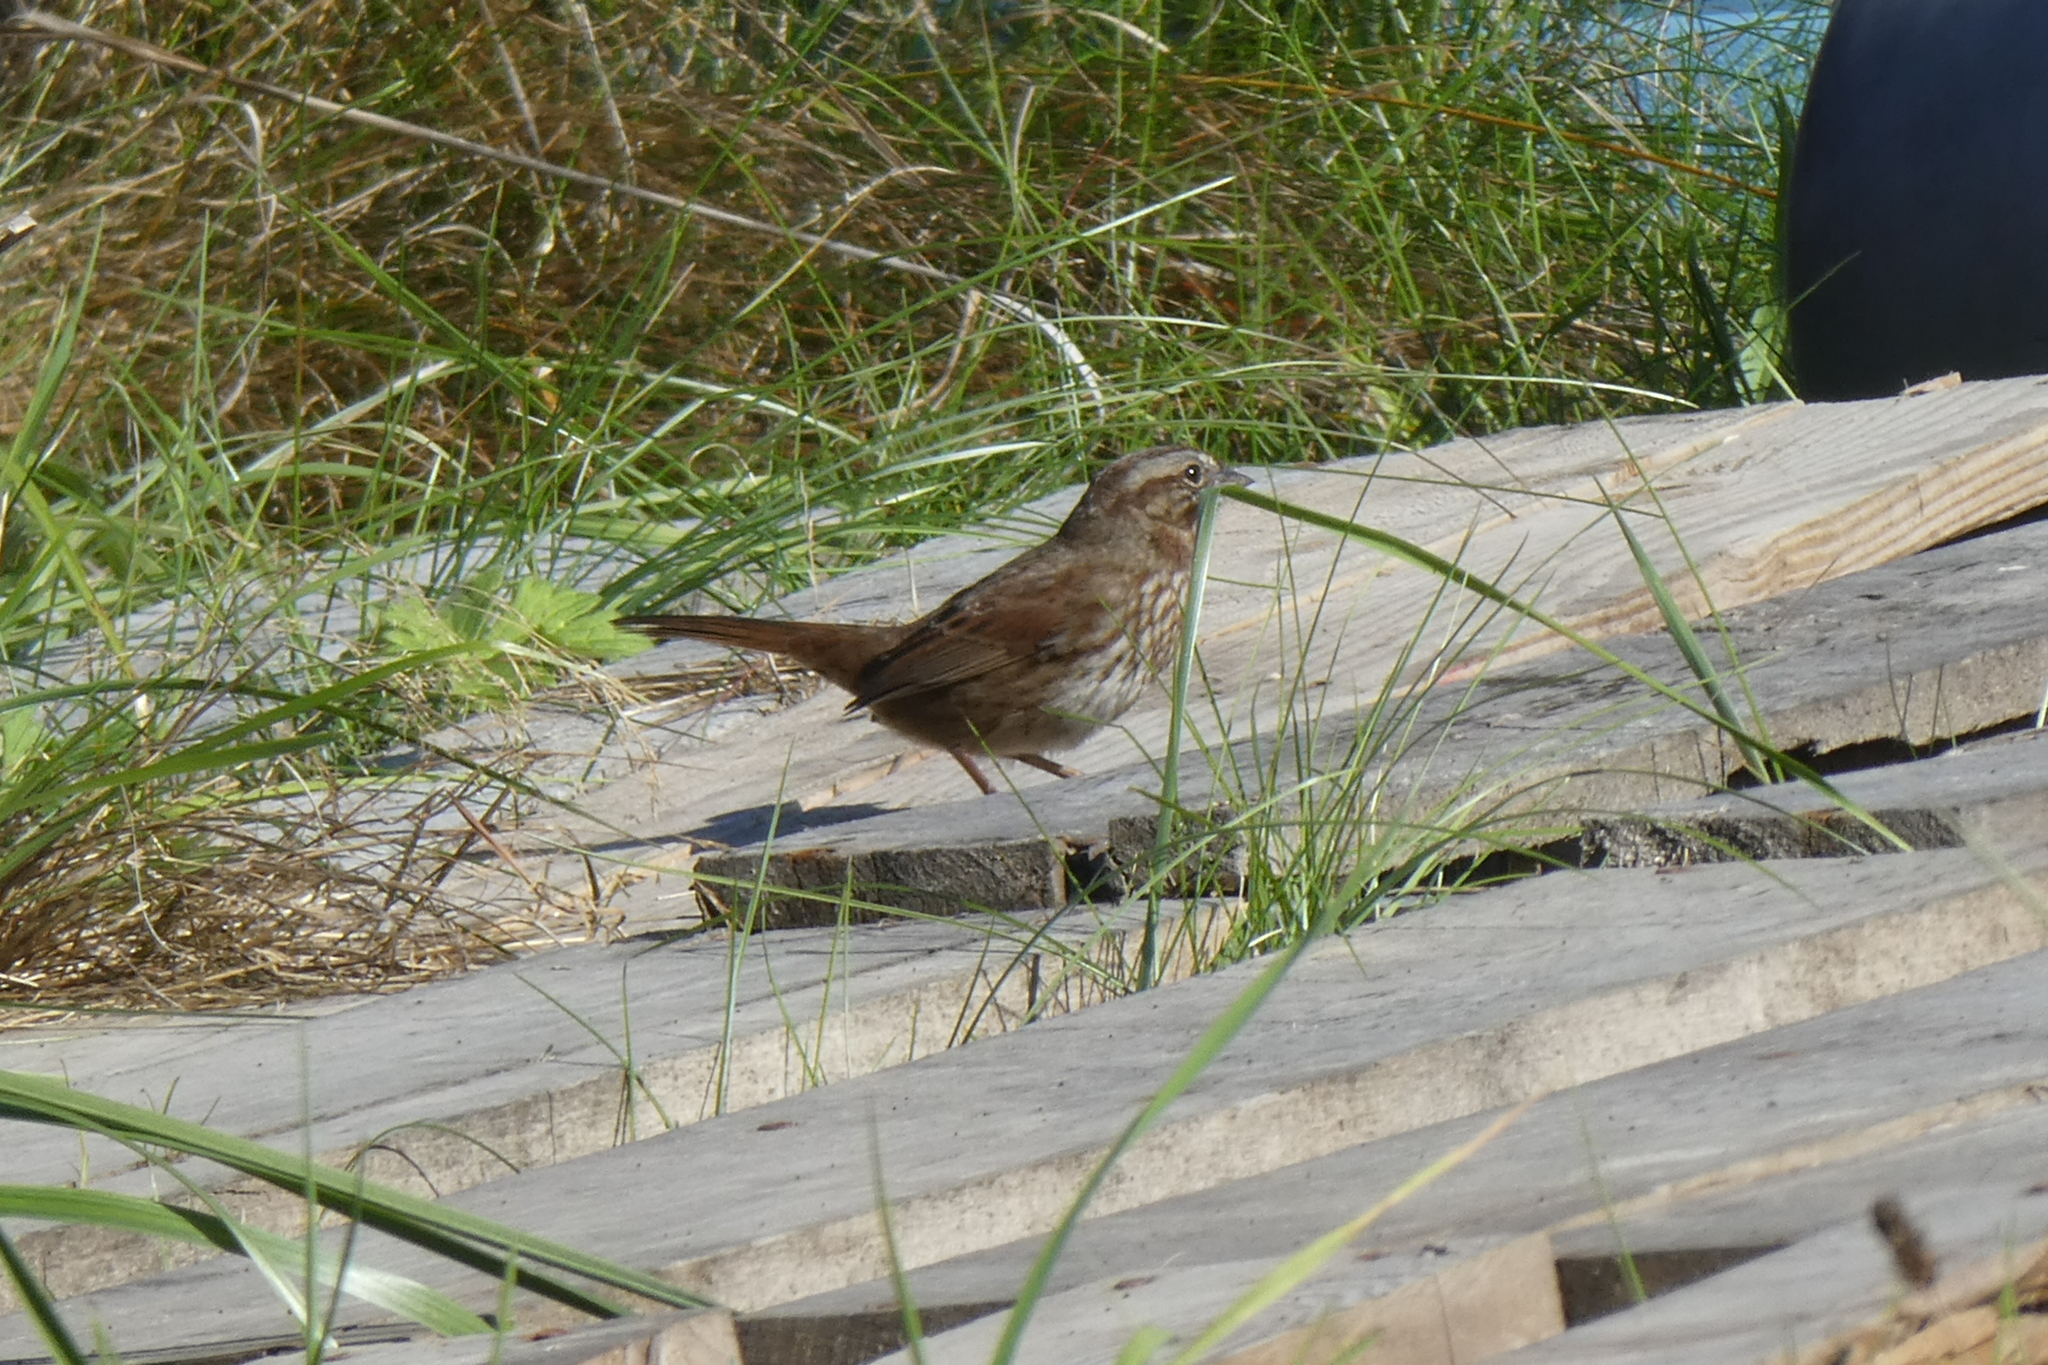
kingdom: Animalia
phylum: Chordata
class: Aves
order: Passeriformes
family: Passerellidae
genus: Melospiza
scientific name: Melospiza melodia
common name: Song sparrow
